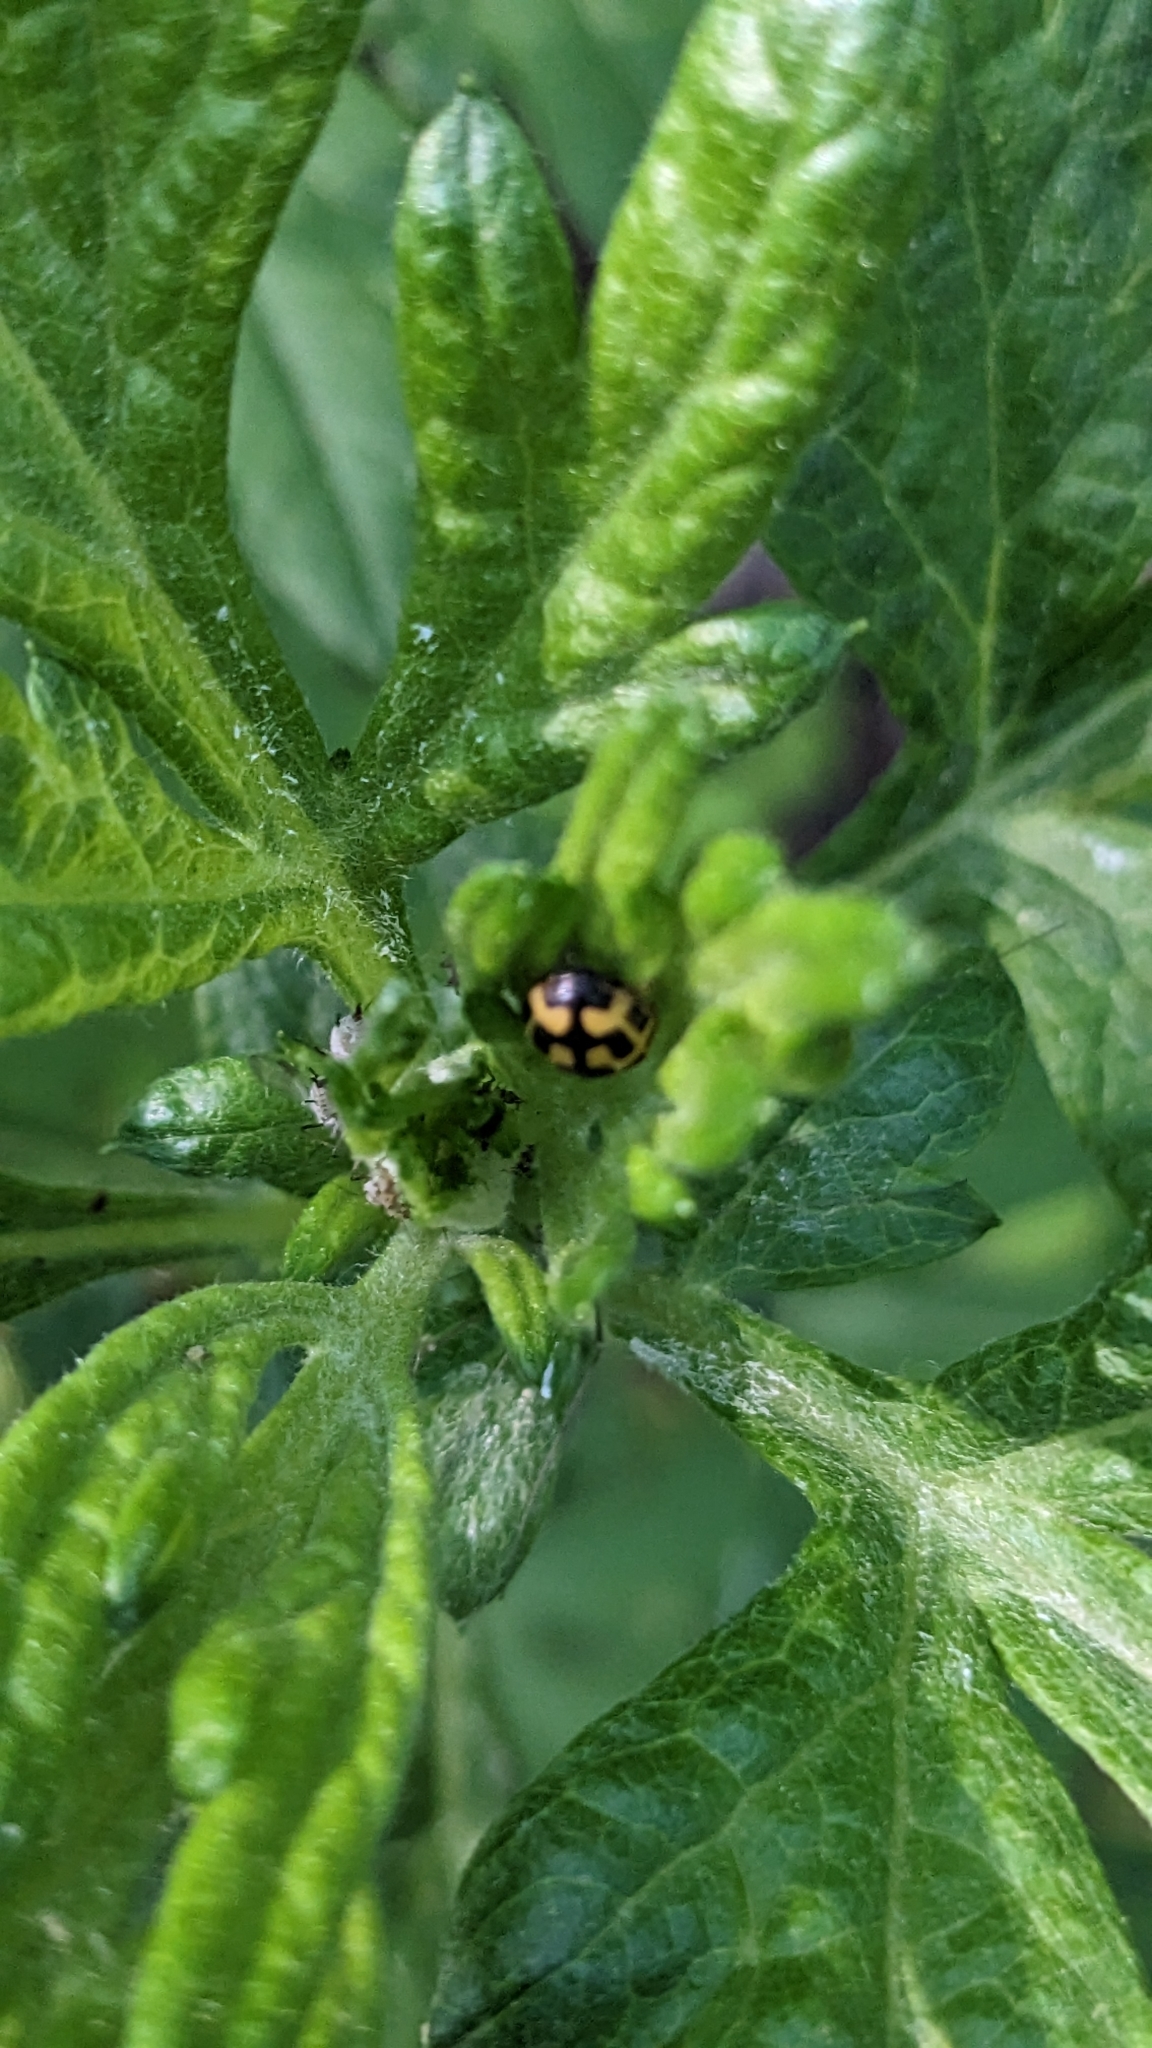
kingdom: Animalia
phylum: Arthropoda
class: Insecta
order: Coleoptera
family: Coccinellidae
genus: Propylaea
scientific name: Propylaea quatuordecimpunctata
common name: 14-spotted ladybird beetle
